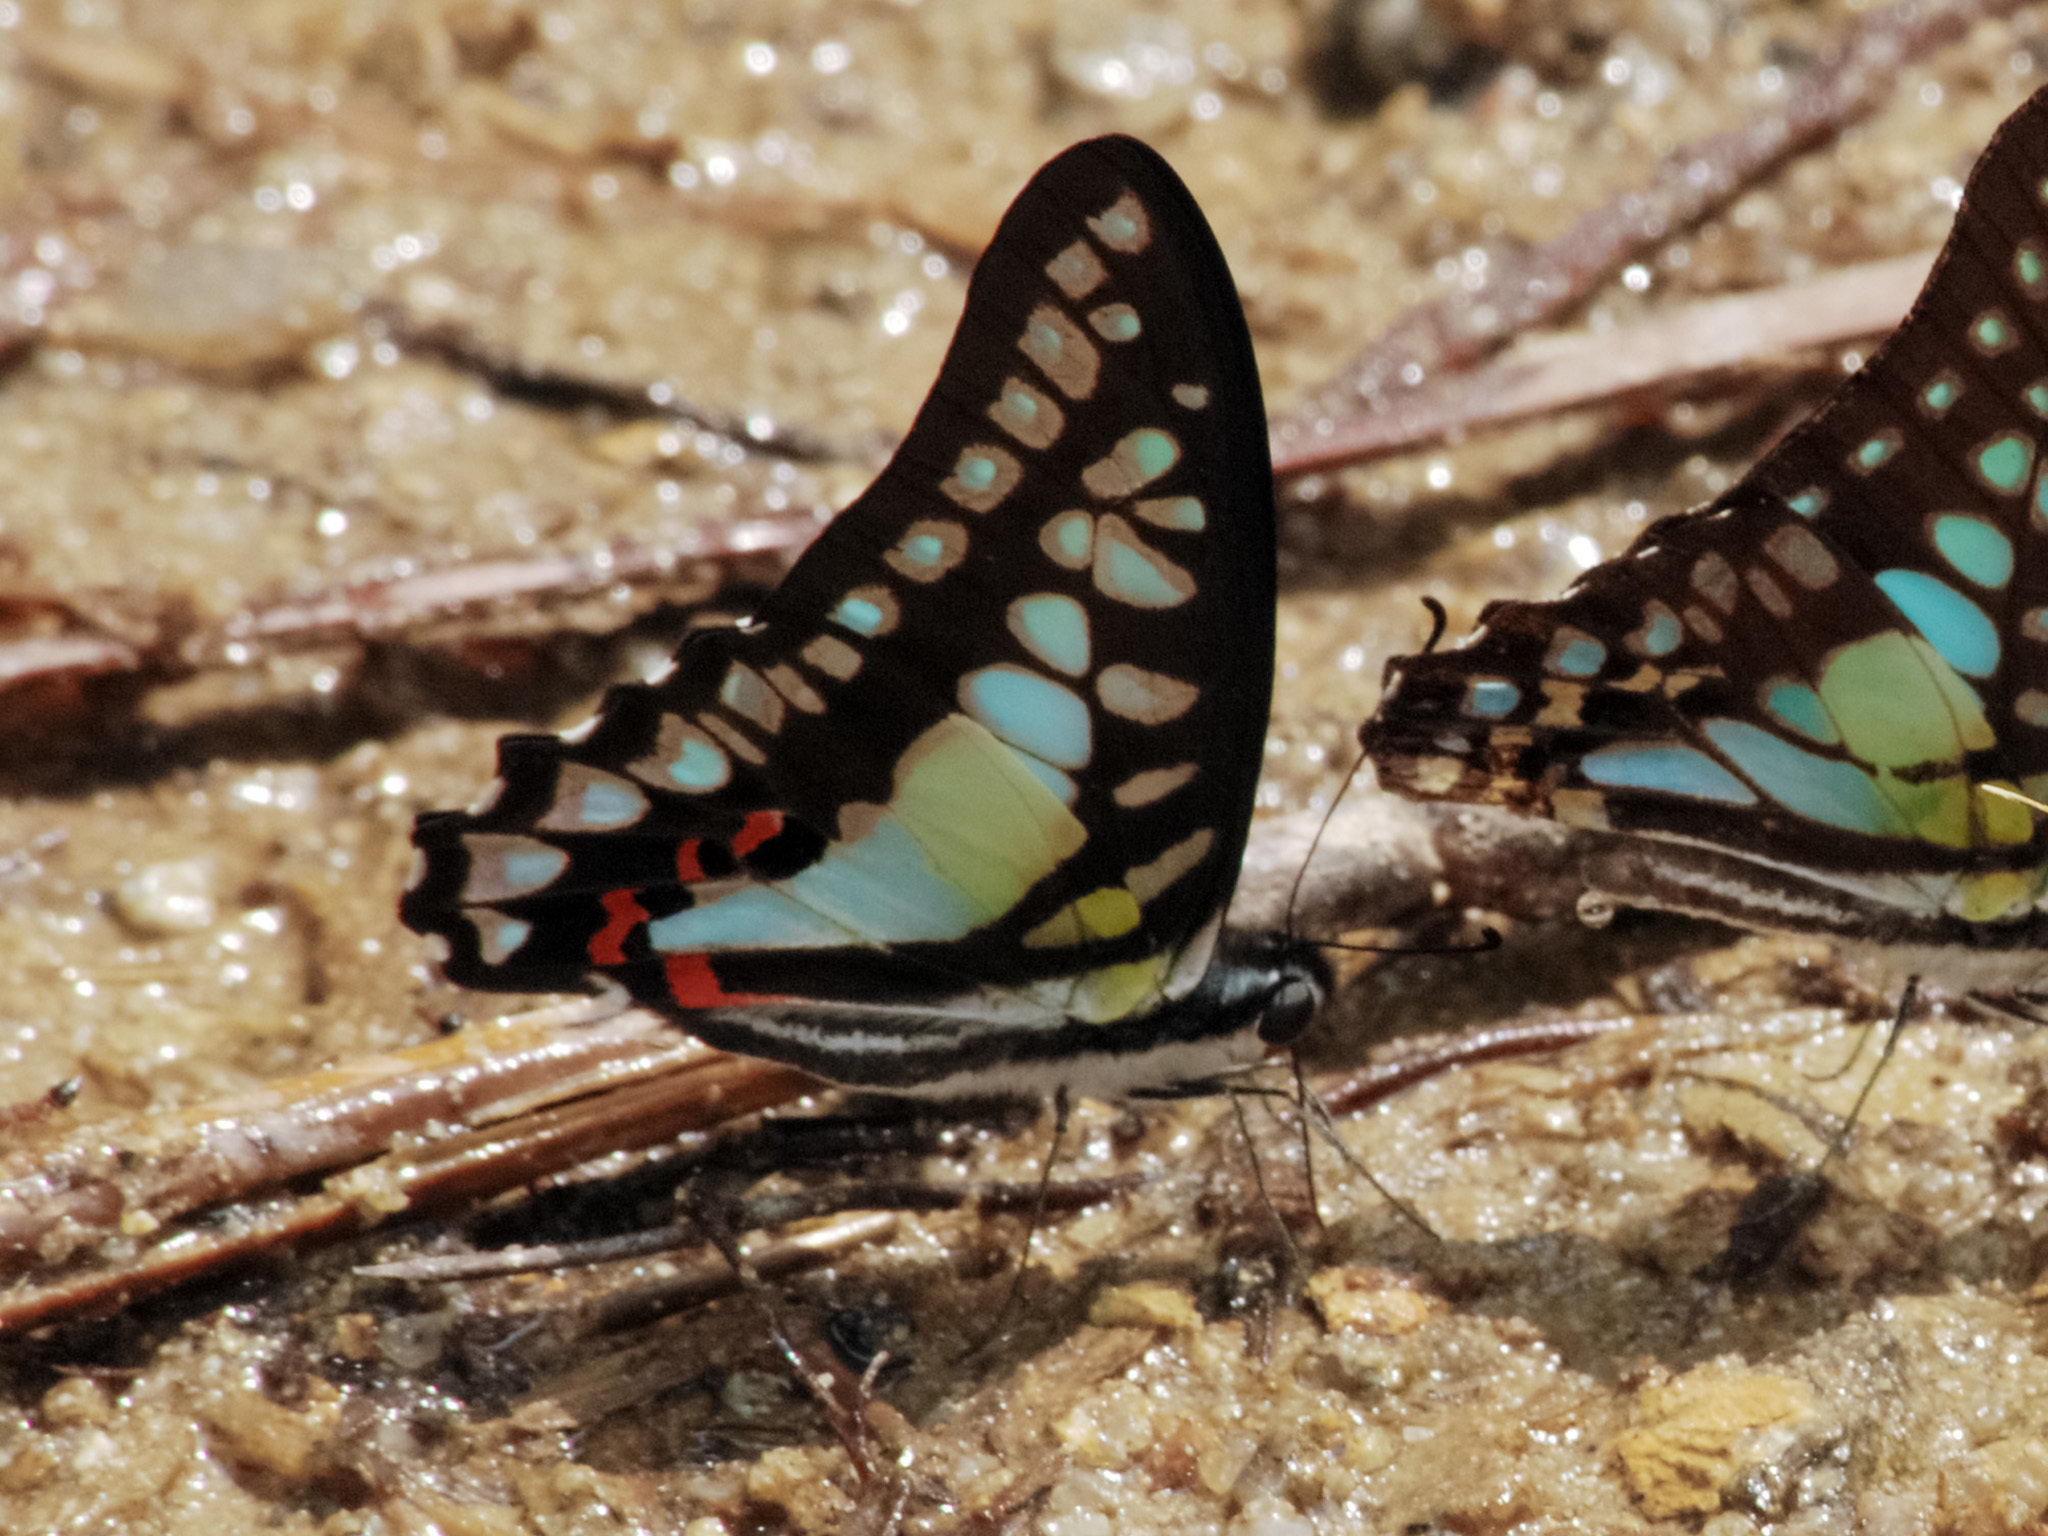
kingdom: Animalia
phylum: Arthropoda
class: Insecta
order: Lepidoptera
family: Papilionidae
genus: Graphium
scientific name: Graphium evemon
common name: Lesser jay
